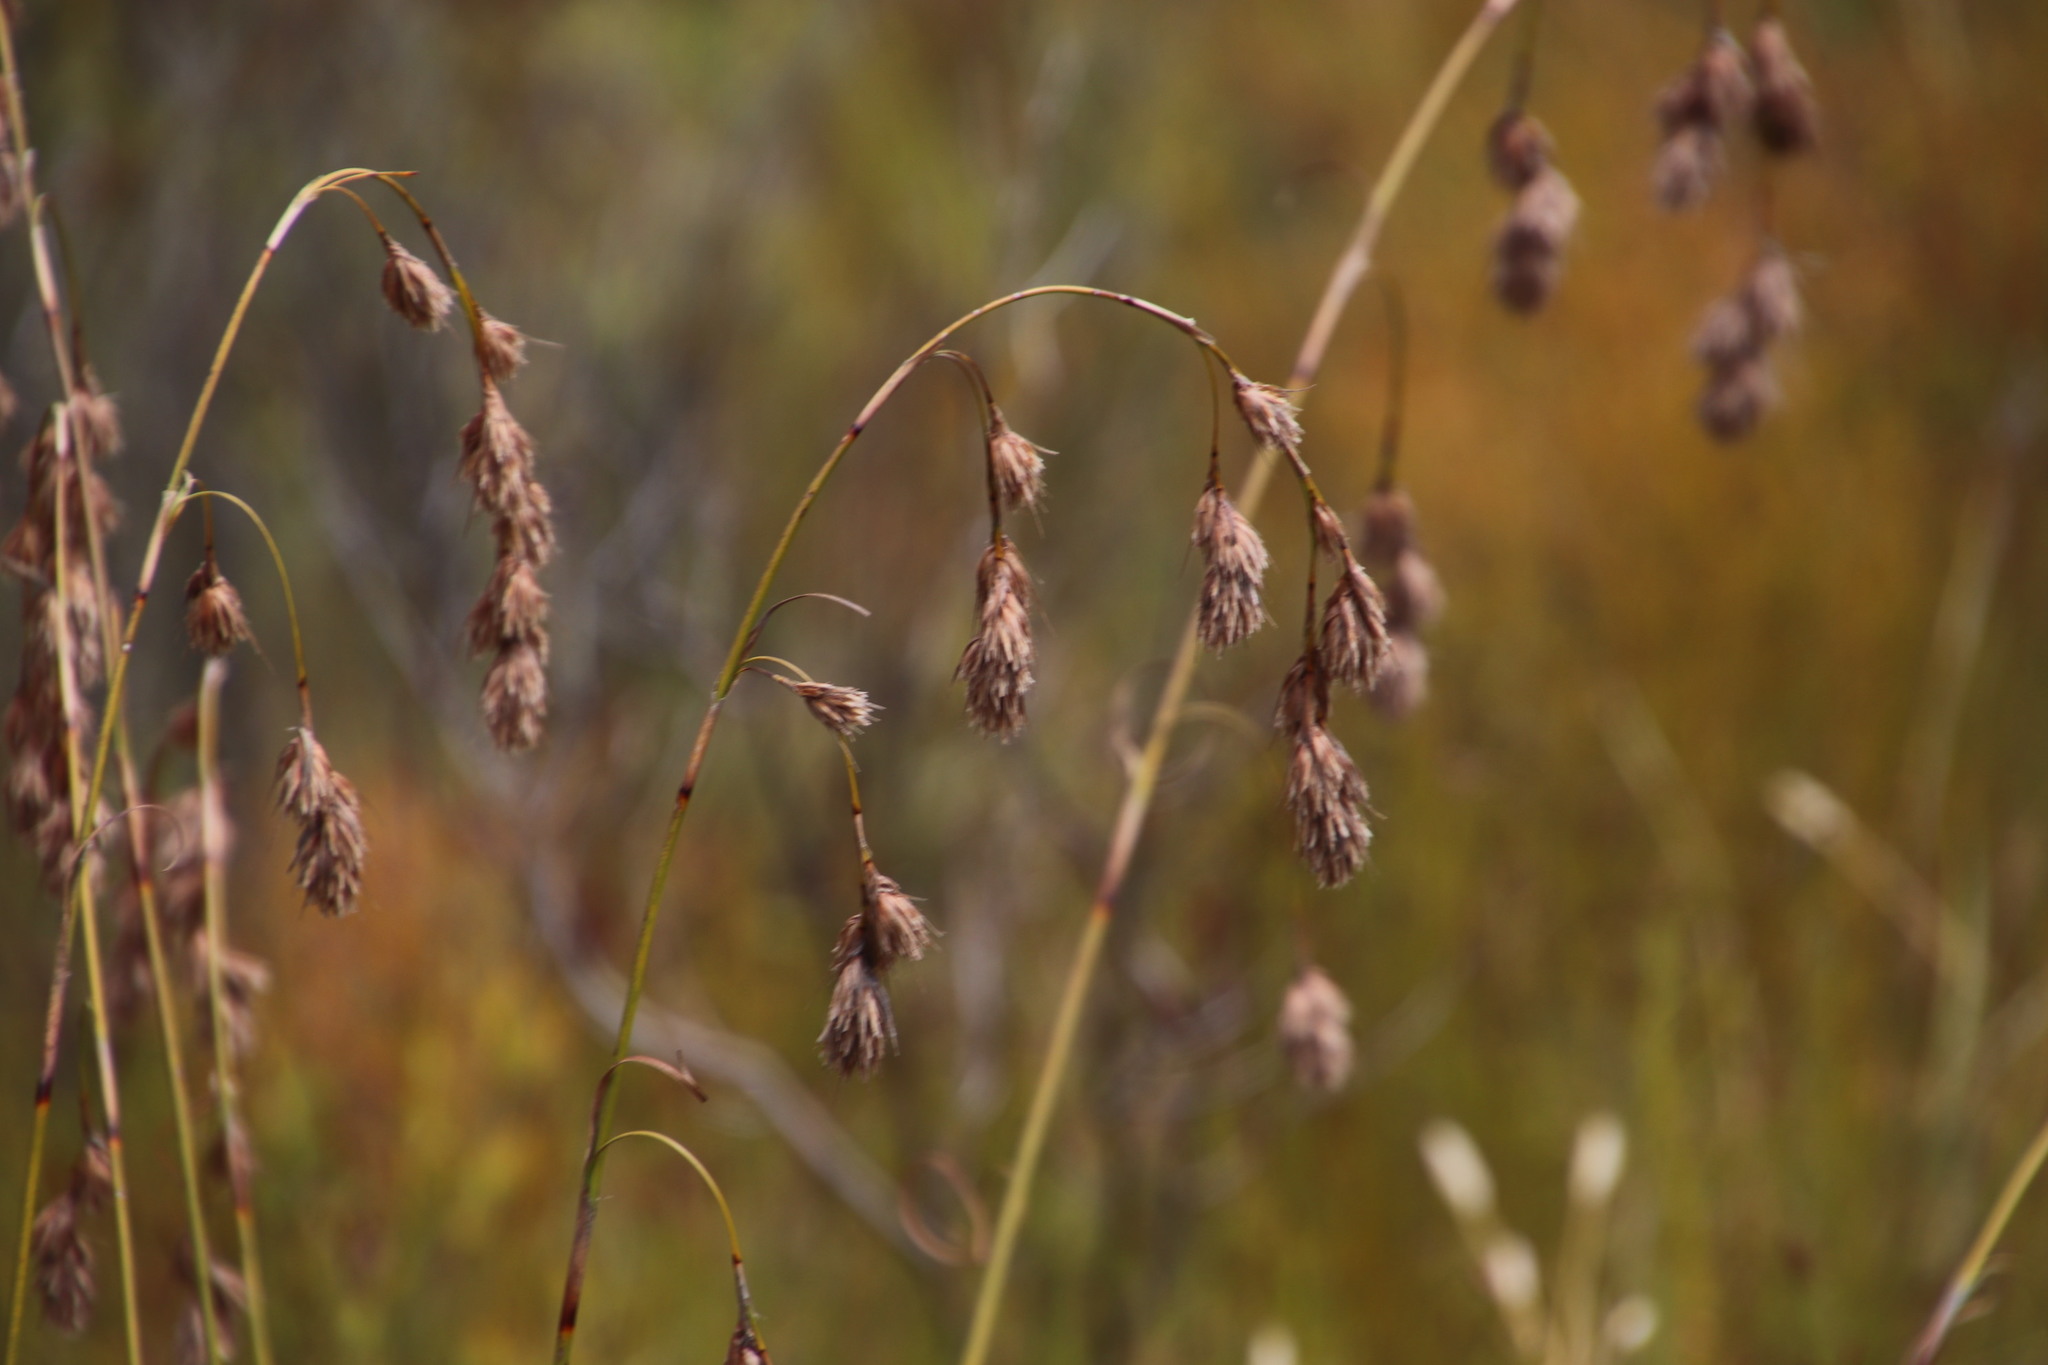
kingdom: Plantae
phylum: Tracheophyta
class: Liliopsida
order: Poales
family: Cyperaceae
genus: Tetraria
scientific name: Tetraria bromoides
